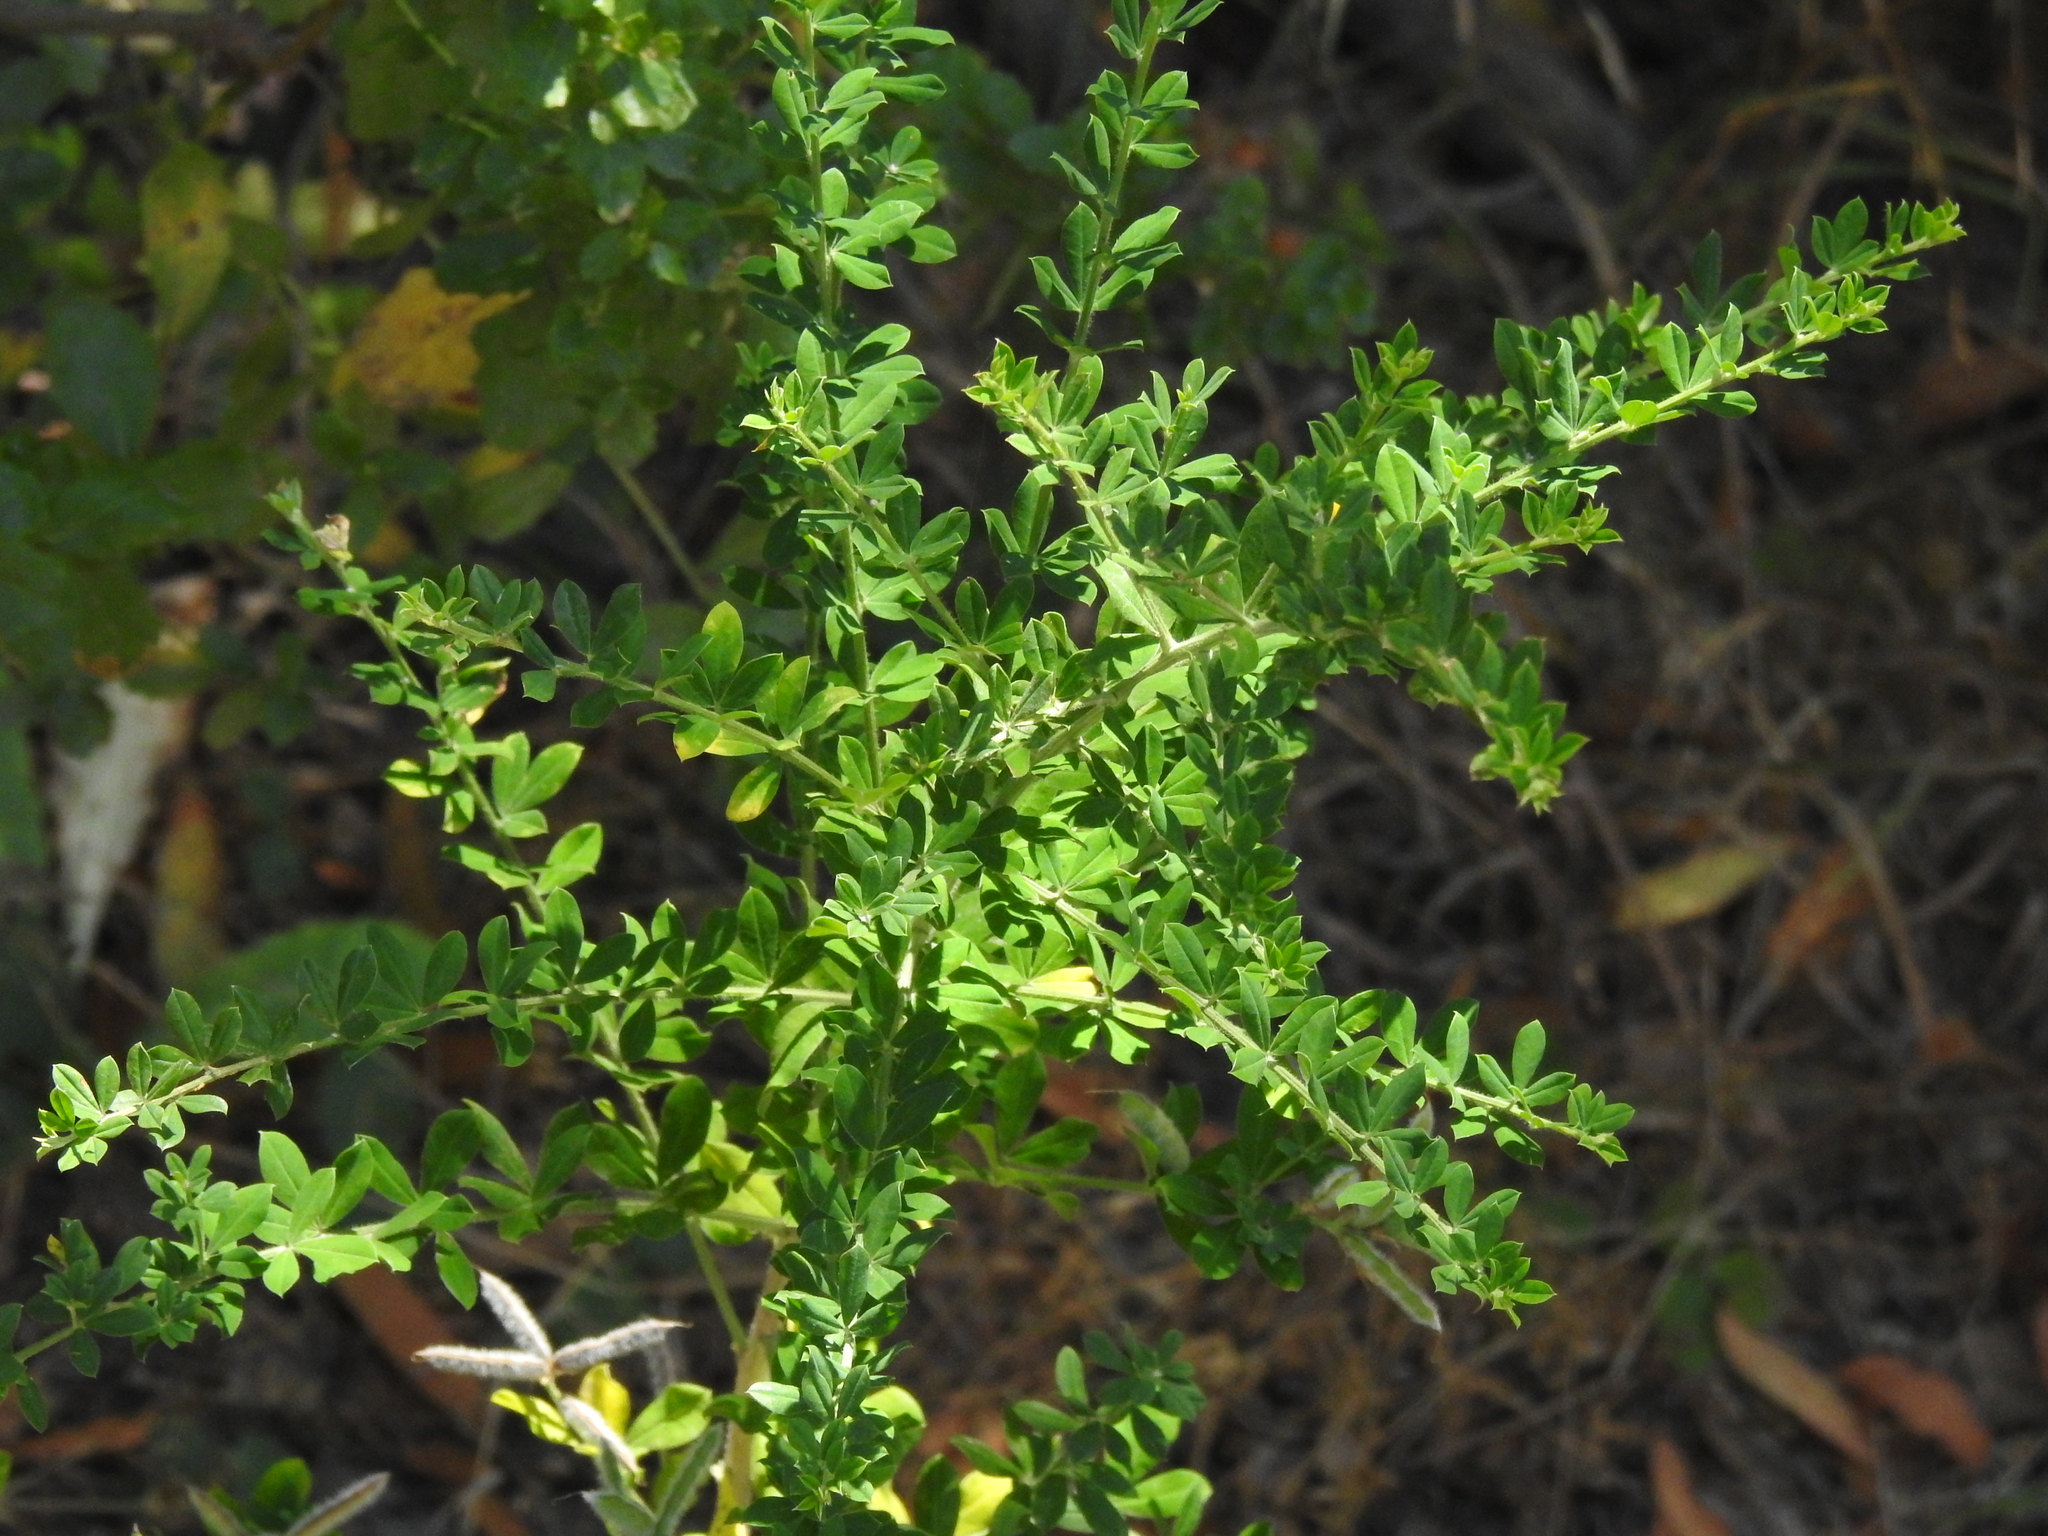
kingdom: Plantae
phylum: Tracheophyta
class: Magnoliopsida
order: Fabales
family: Fabaceae
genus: Genista
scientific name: Genista monspessulana
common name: Montpellier broom
